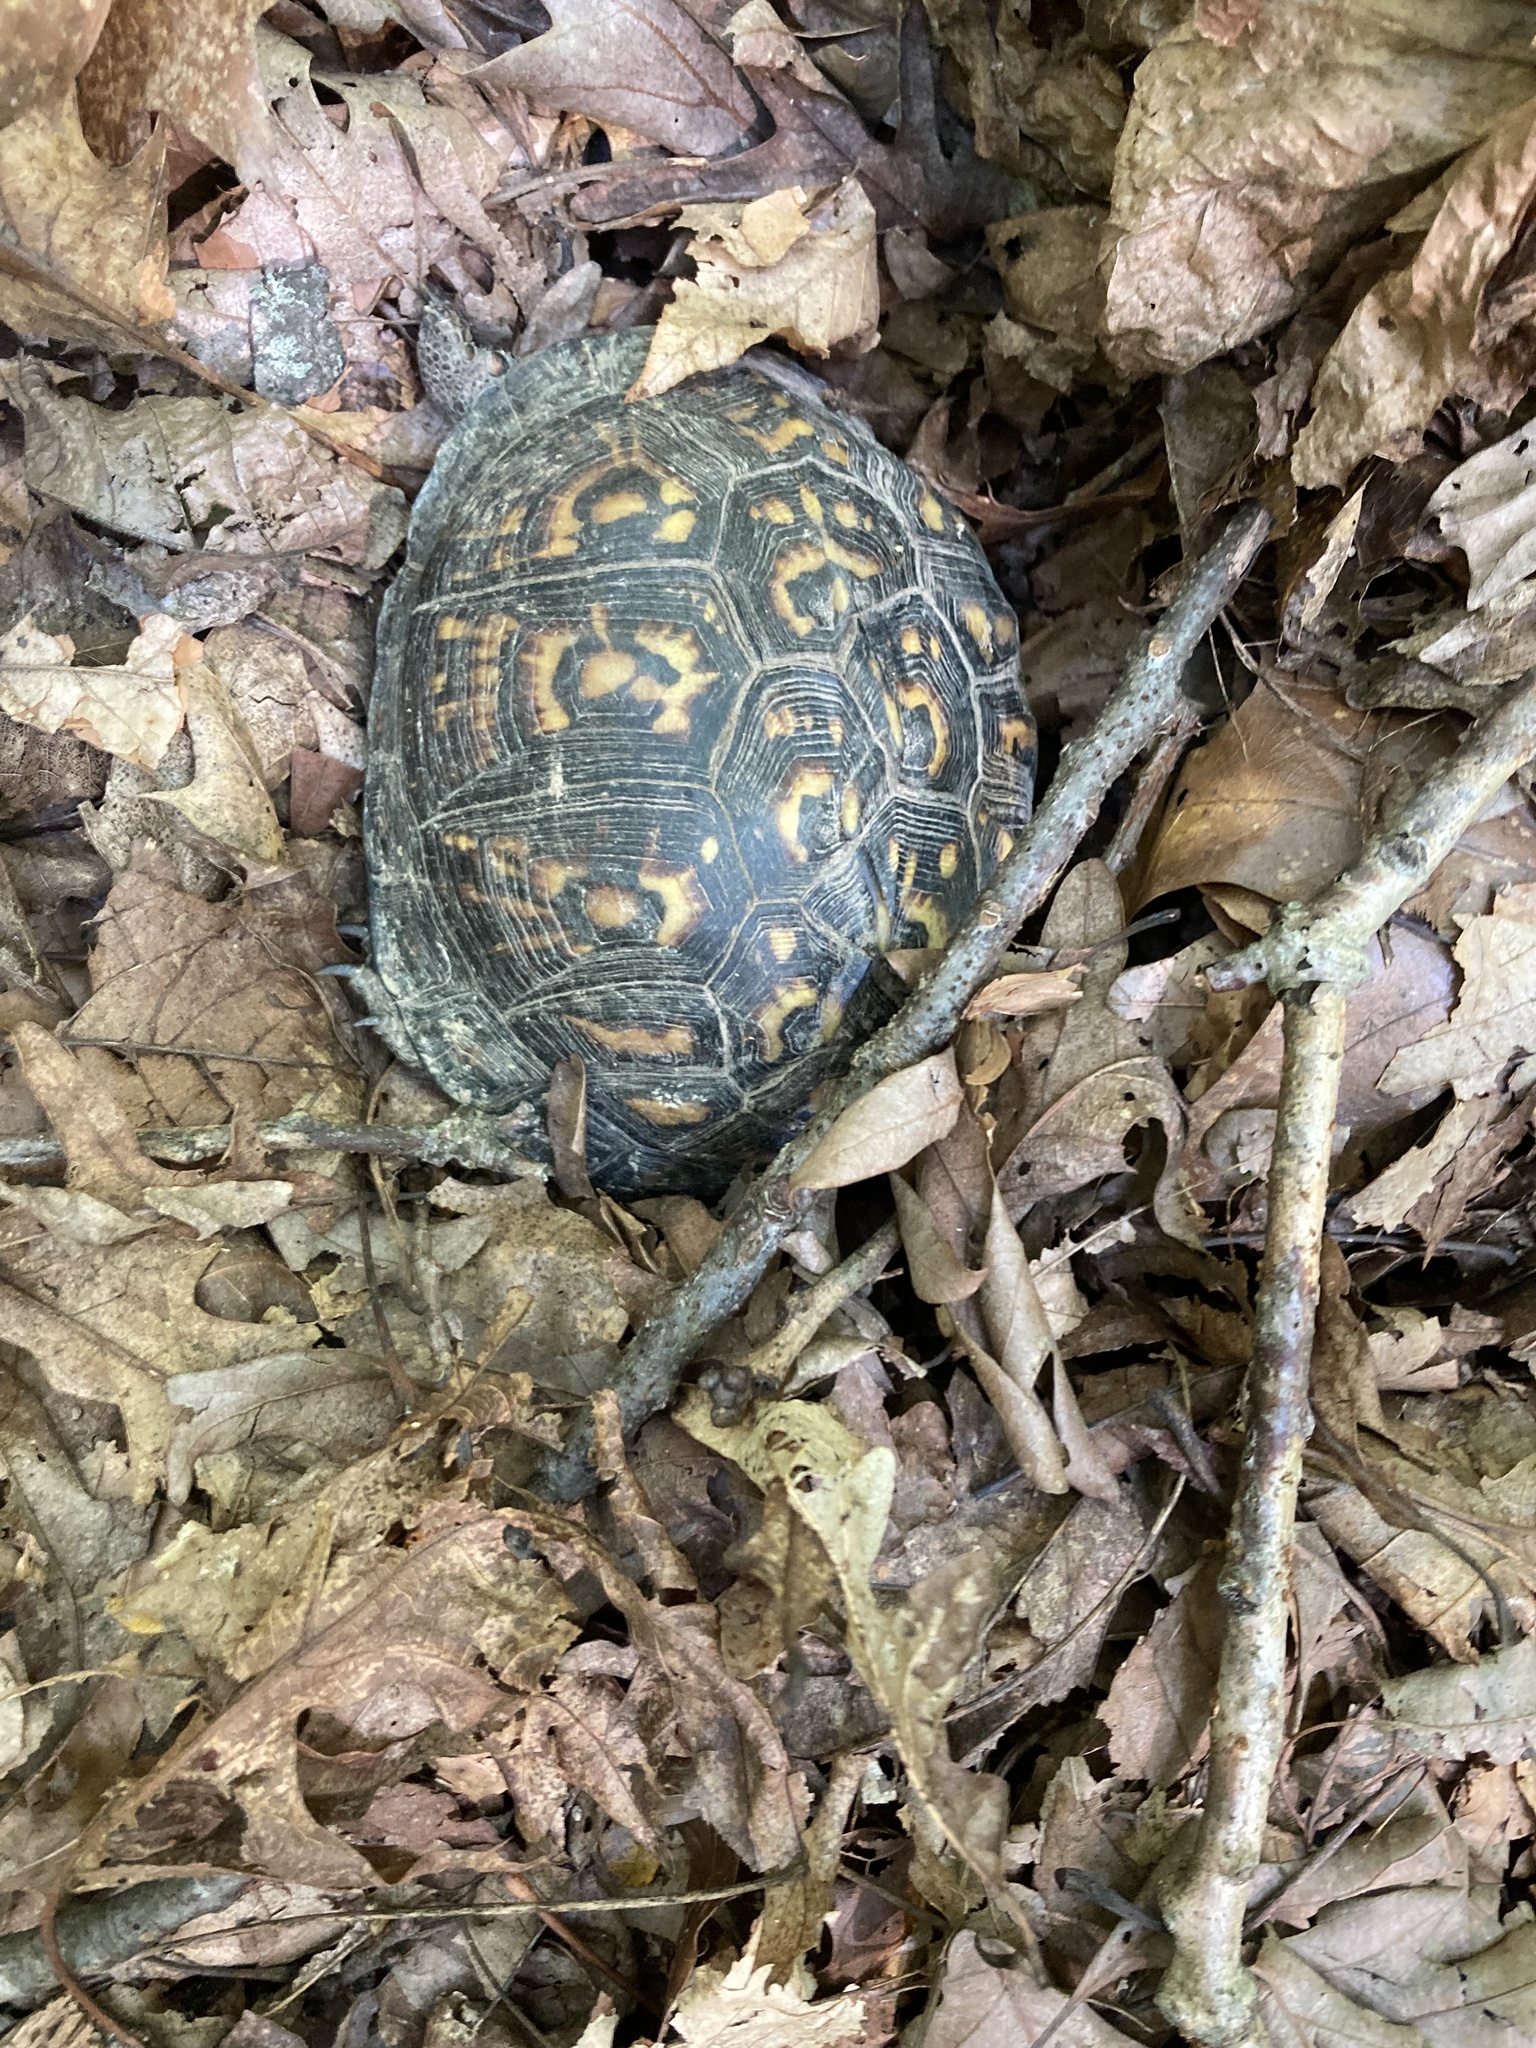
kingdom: Animalia
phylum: Chordata
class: Testudines
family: Emydidae
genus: Terrapene
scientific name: Terrapene carolina
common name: Common box turtle
